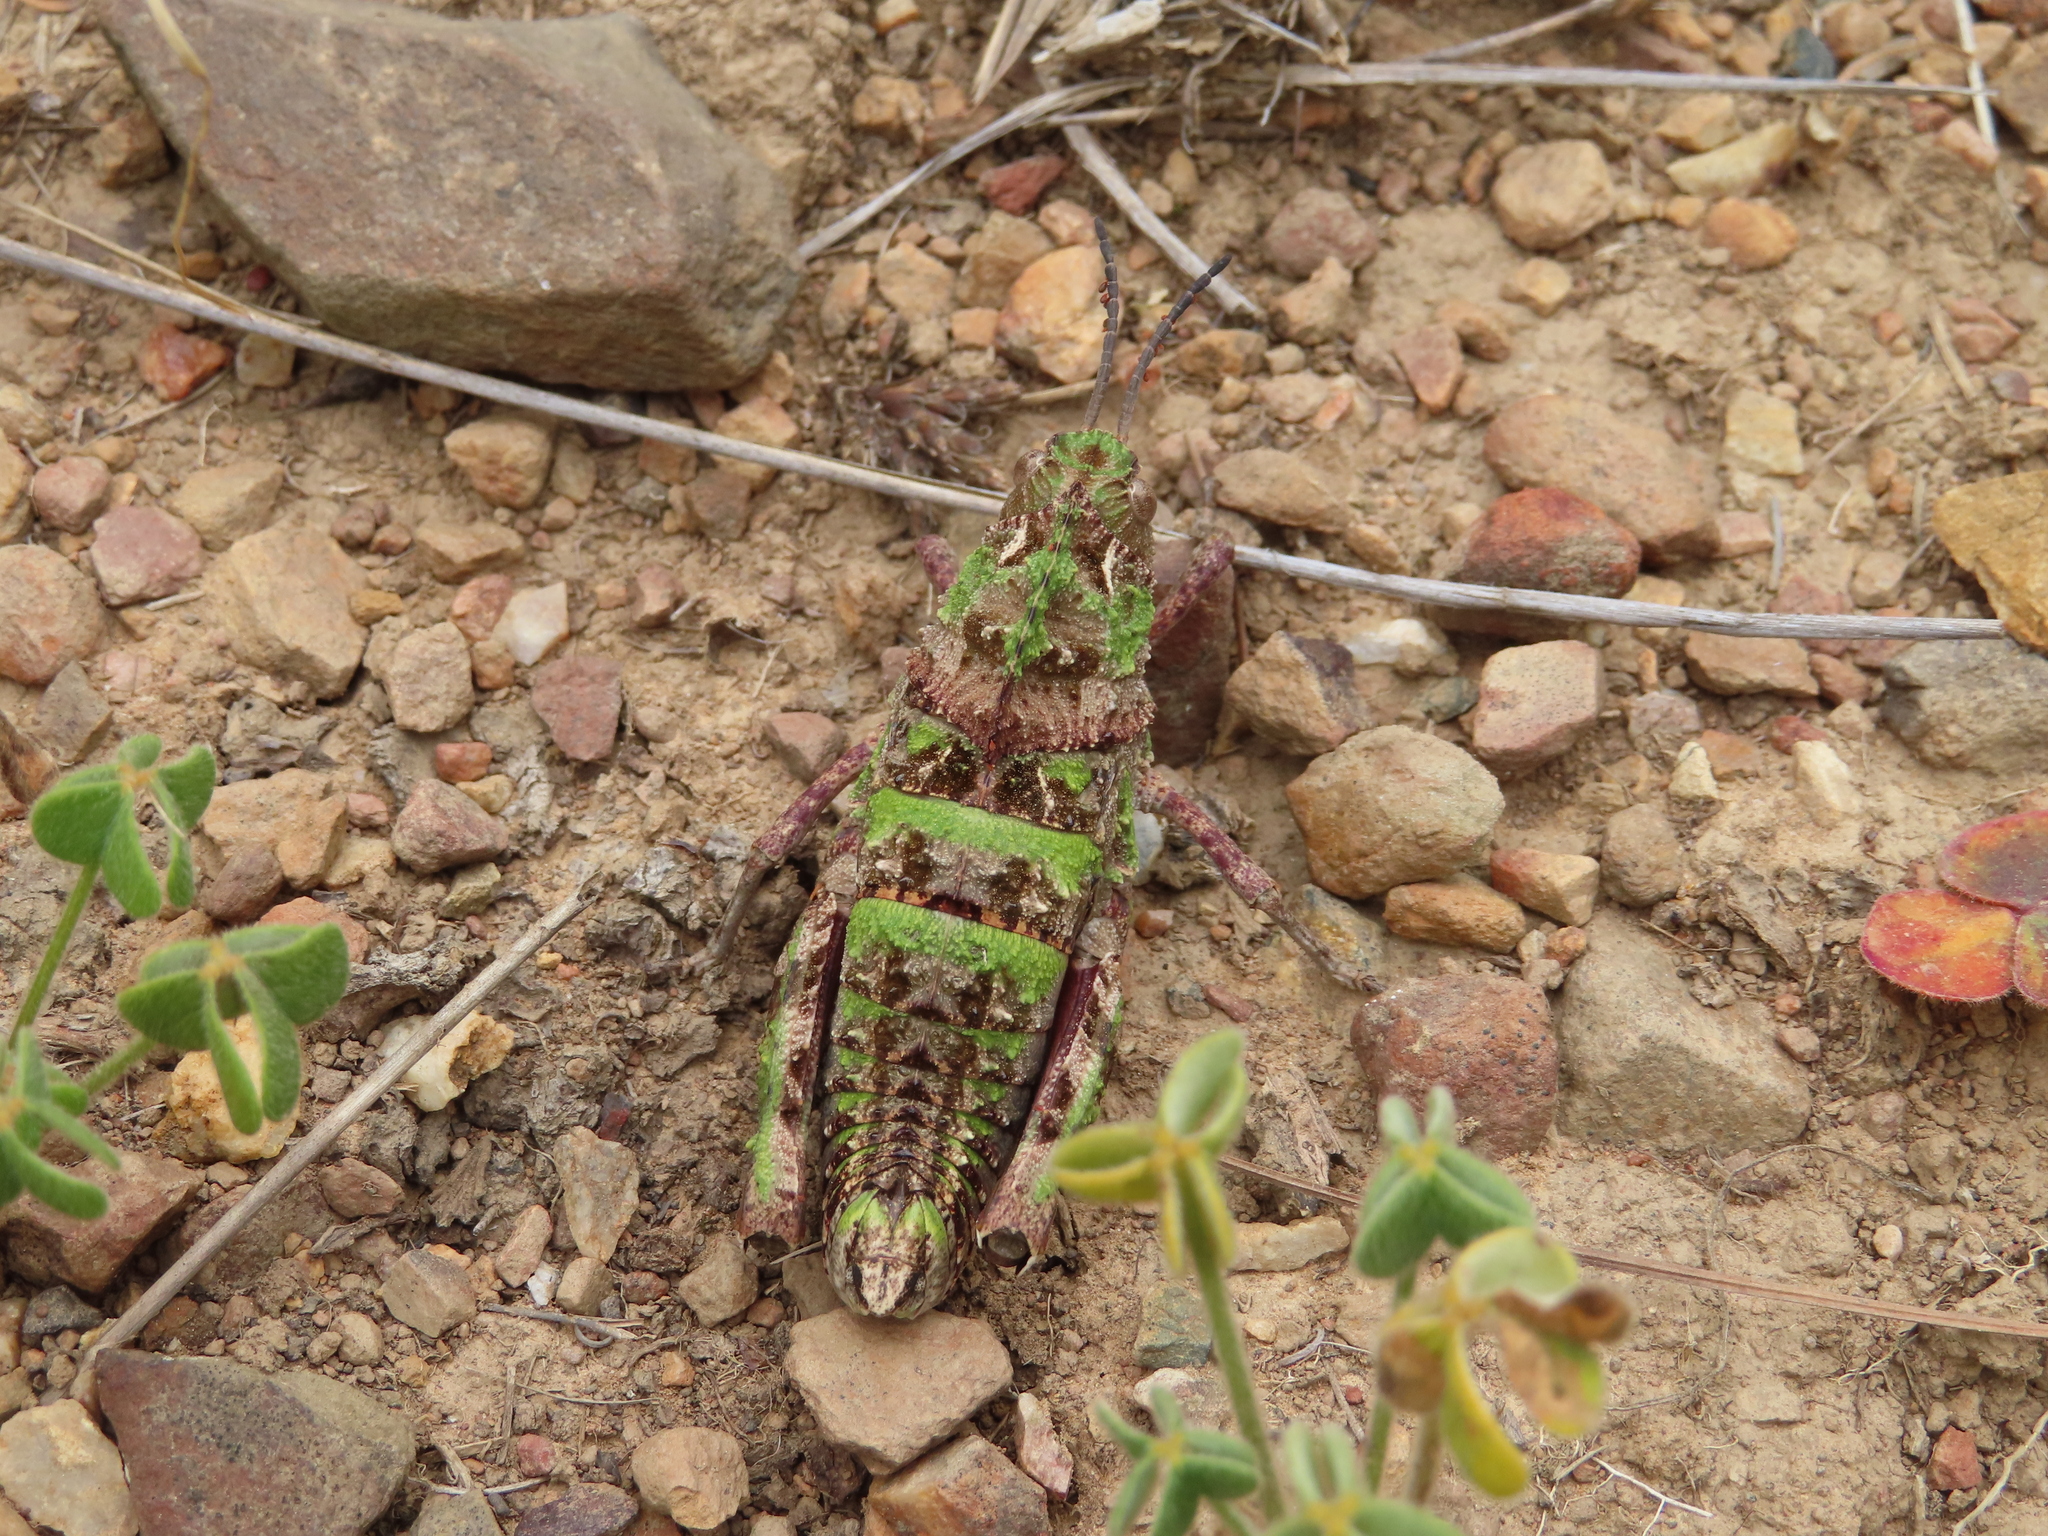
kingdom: Animalia
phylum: Arthropoda
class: Insecta
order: Orthoptera
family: Pamphagidae
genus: Porthetis
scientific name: Porthetis carinata
